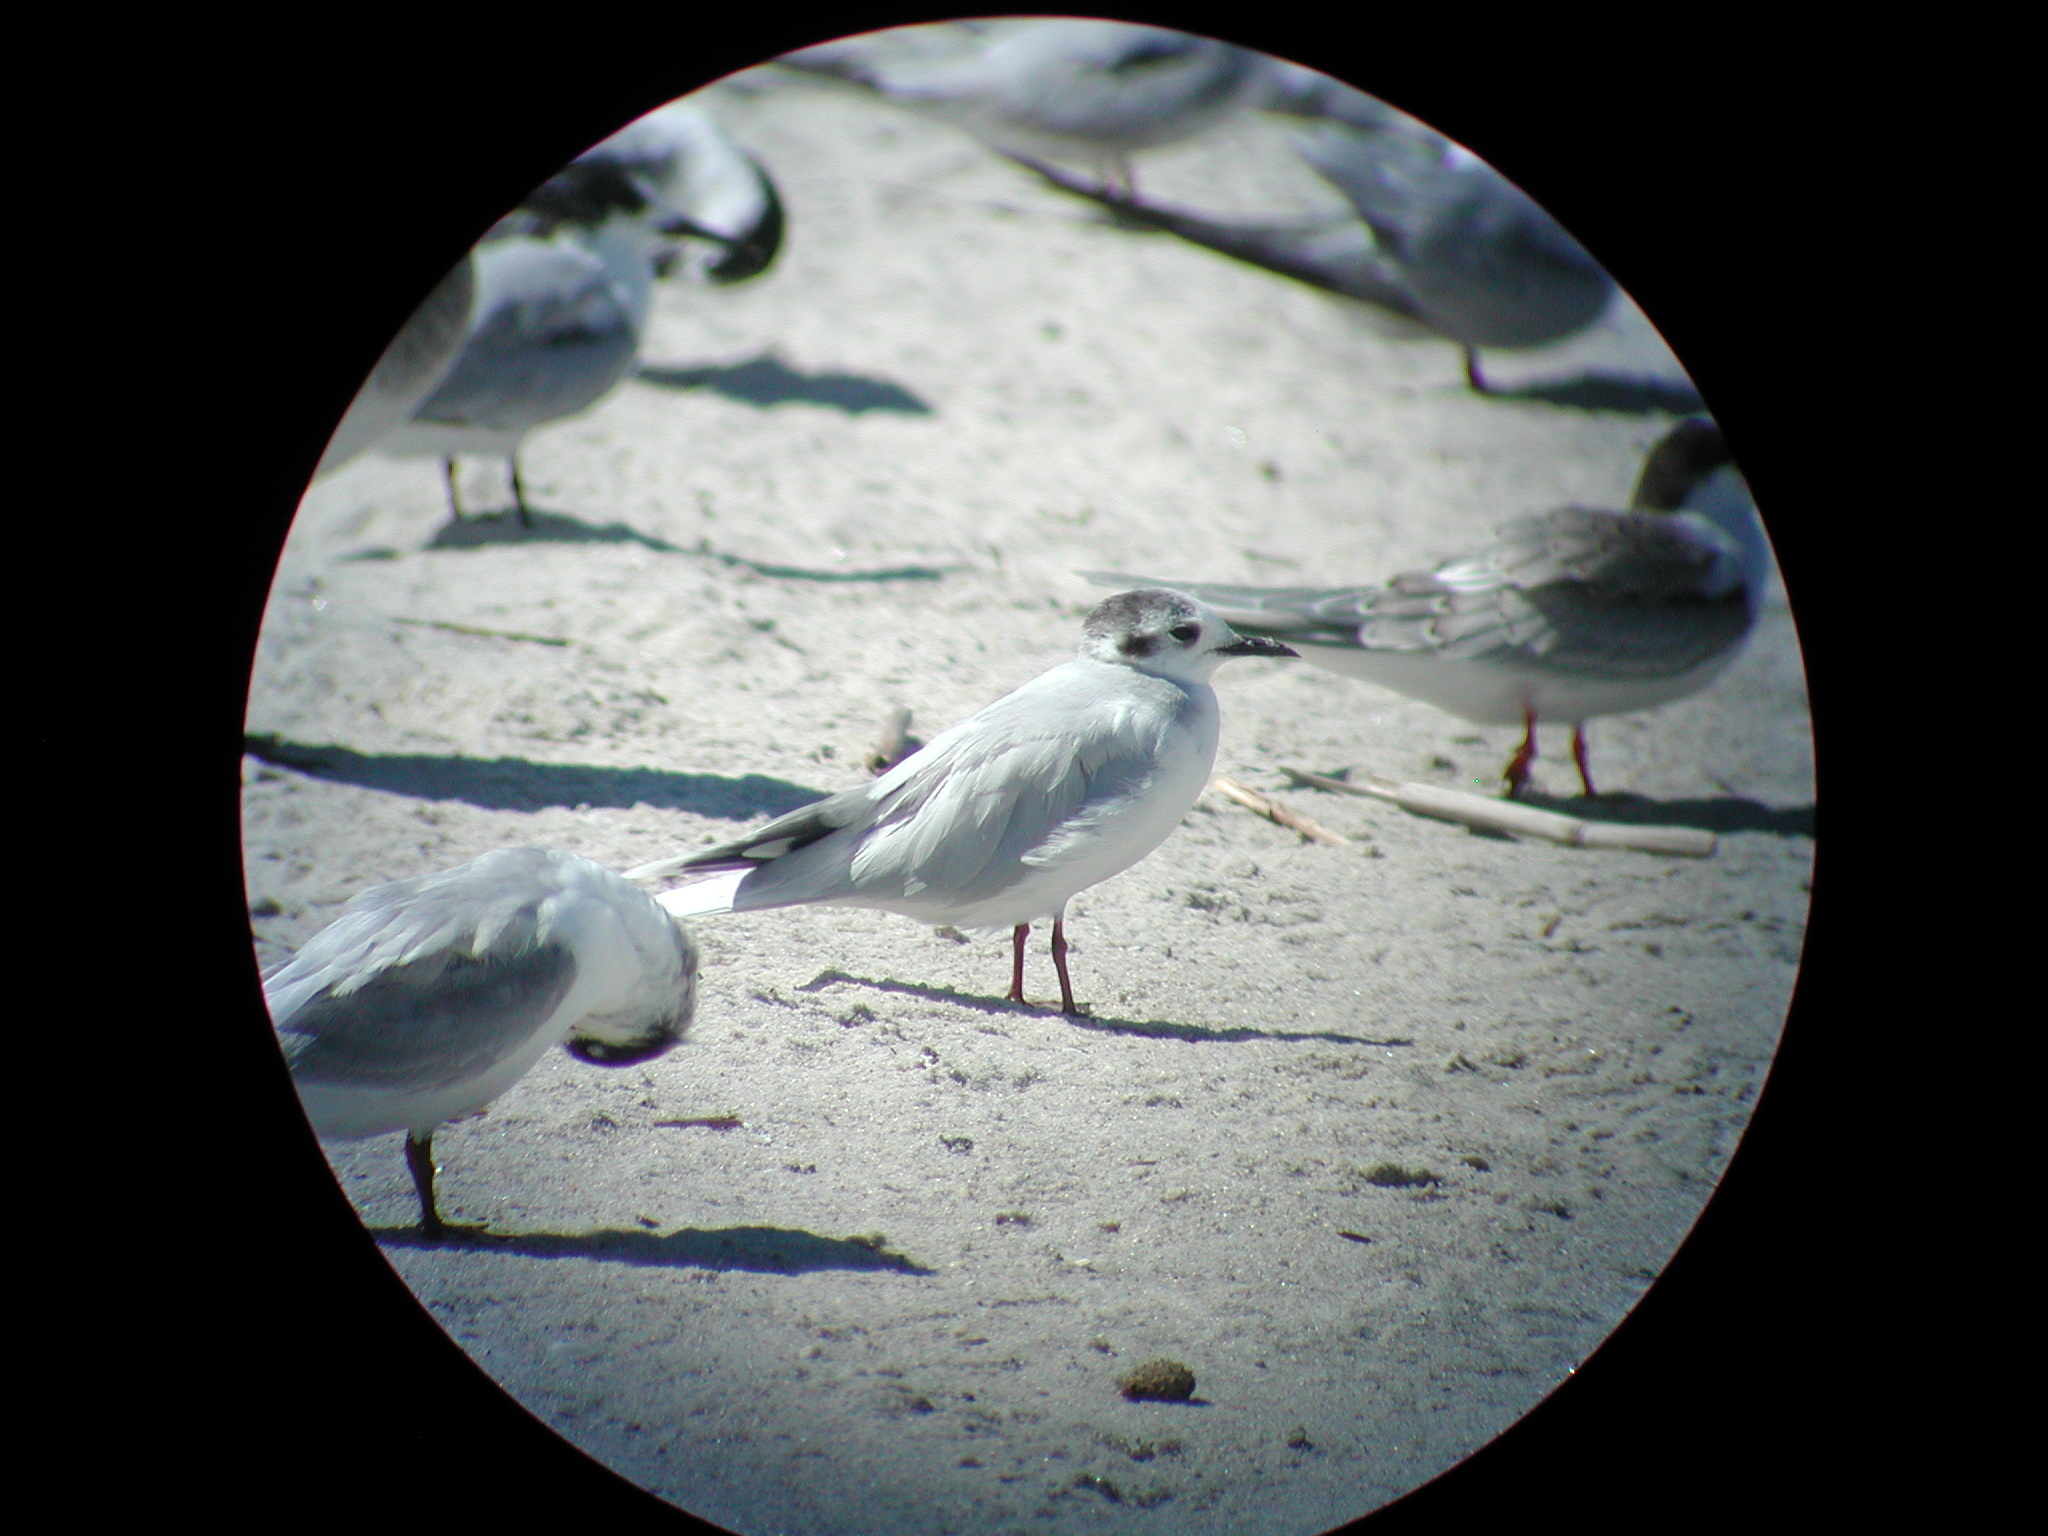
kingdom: Animalia
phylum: Chordata
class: Aves
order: Charadriiformes
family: Laridae
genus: Hydrocoloeus
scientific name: Hydrocoloeus minutus
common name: Little gull
